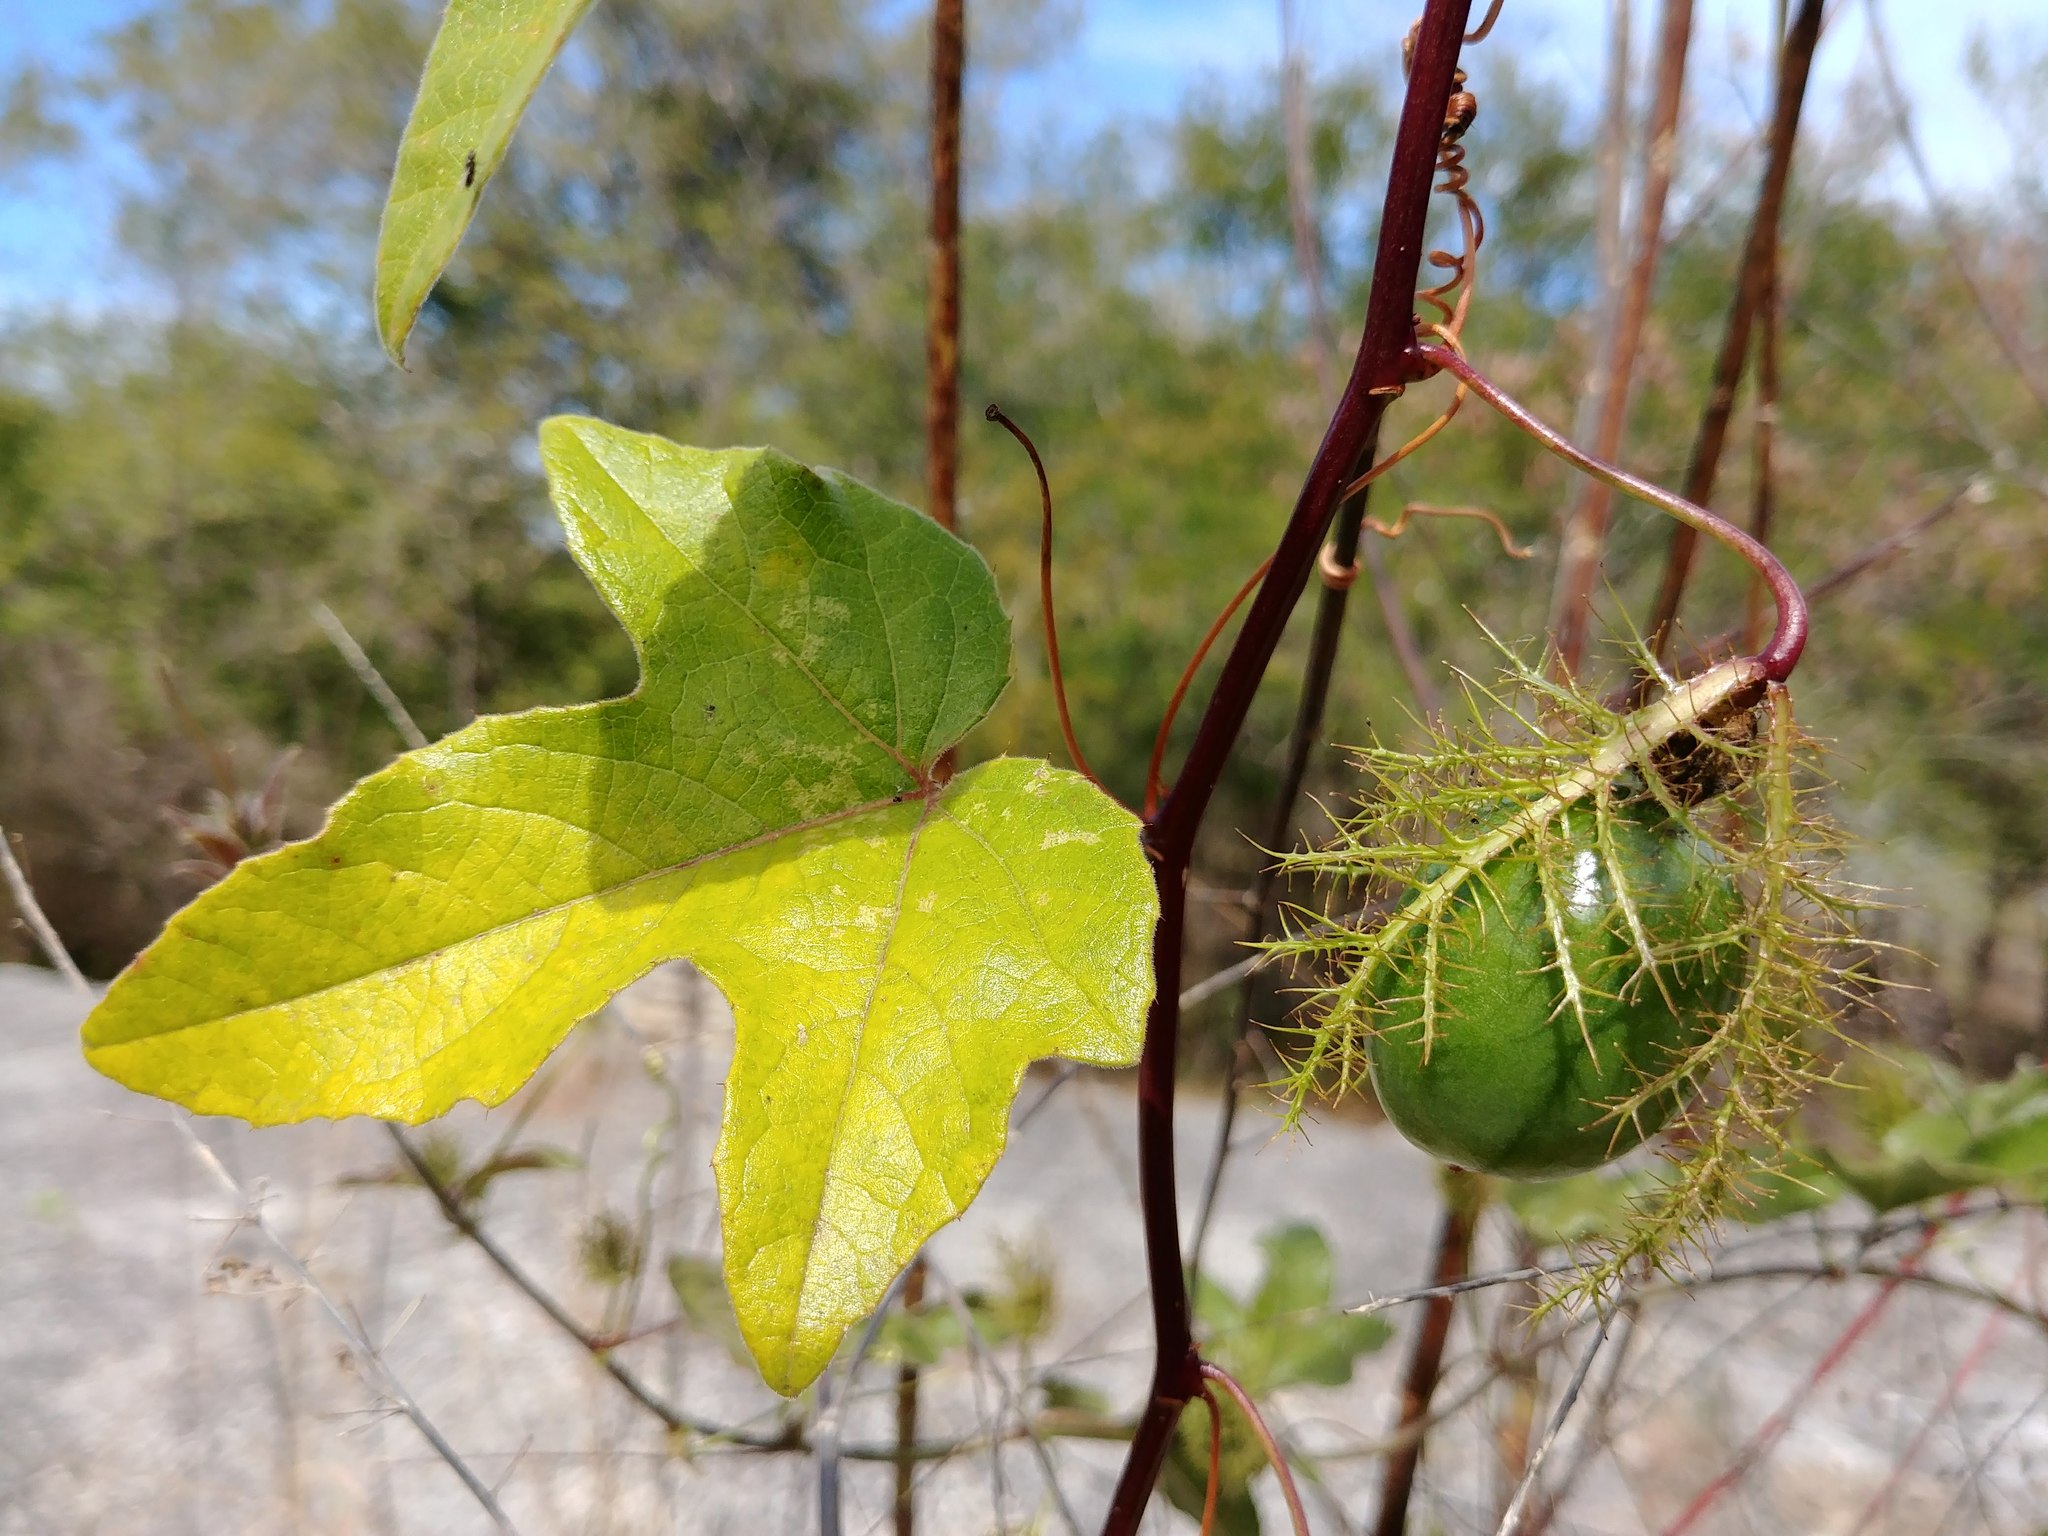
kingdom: Plantae
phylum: Tracheophyta
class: Magnoliopsida
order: Malpighiales
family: Passifloraceae
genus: Passiflora
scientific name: Passiflora ciliata
